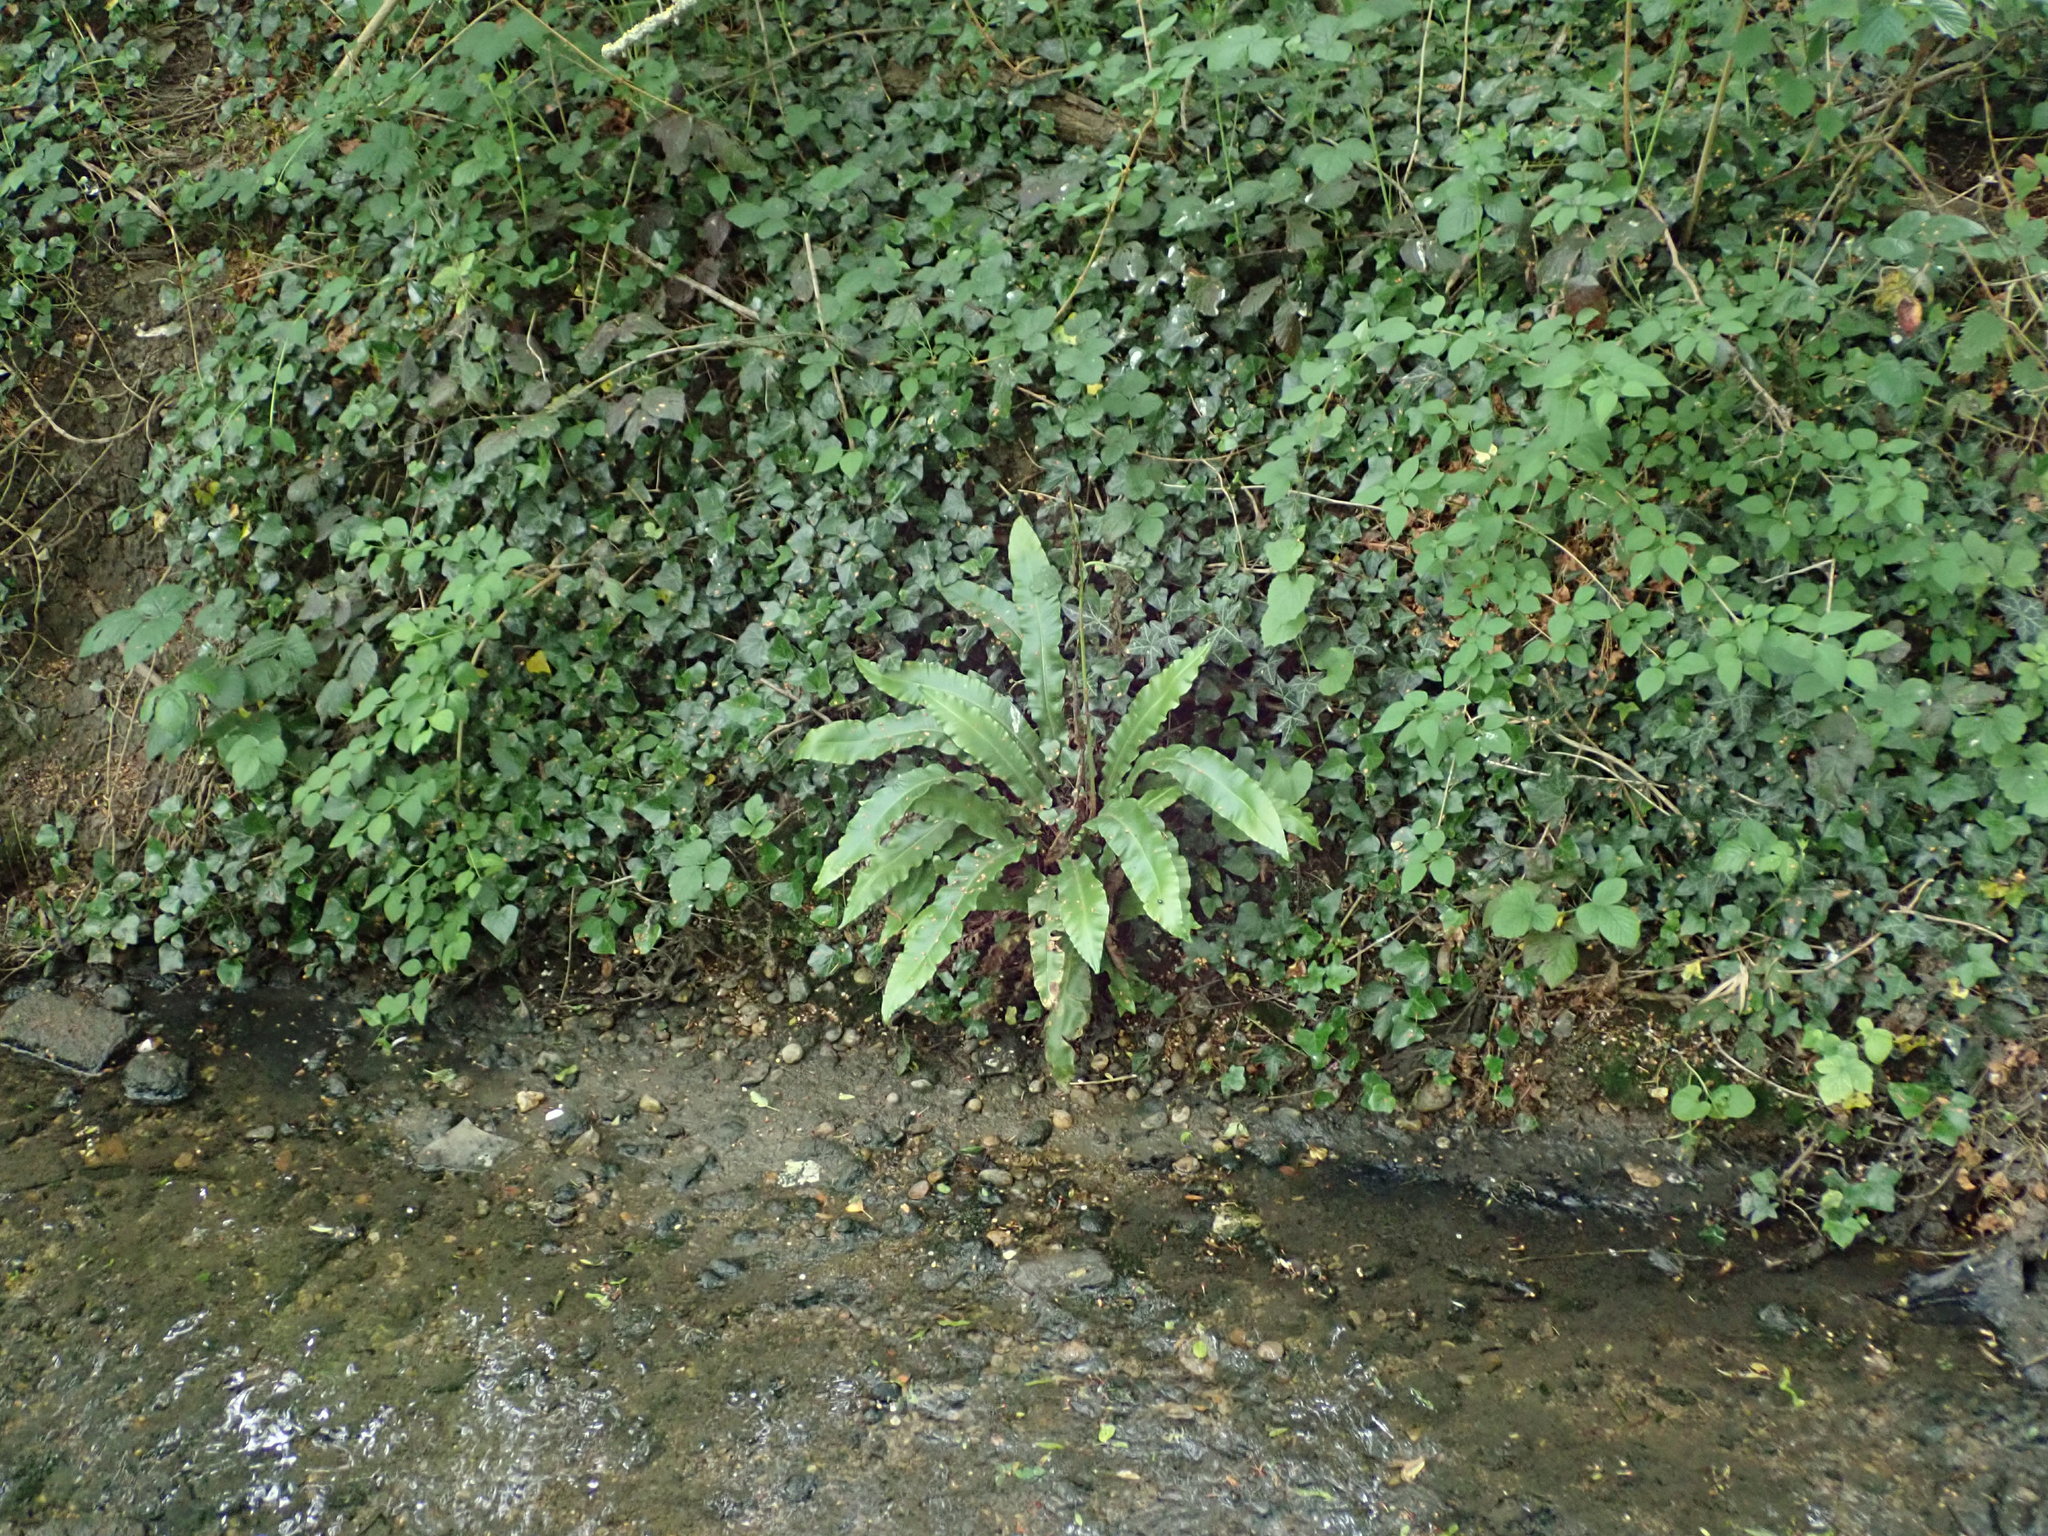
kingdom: Plantae
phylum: Tracheophyta
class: Polypodiopsida
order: Polypodiales
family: Aspleniaceae
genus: Asplenium
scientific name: Asplenium scolopendrium
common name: Hart's-tongue fern
